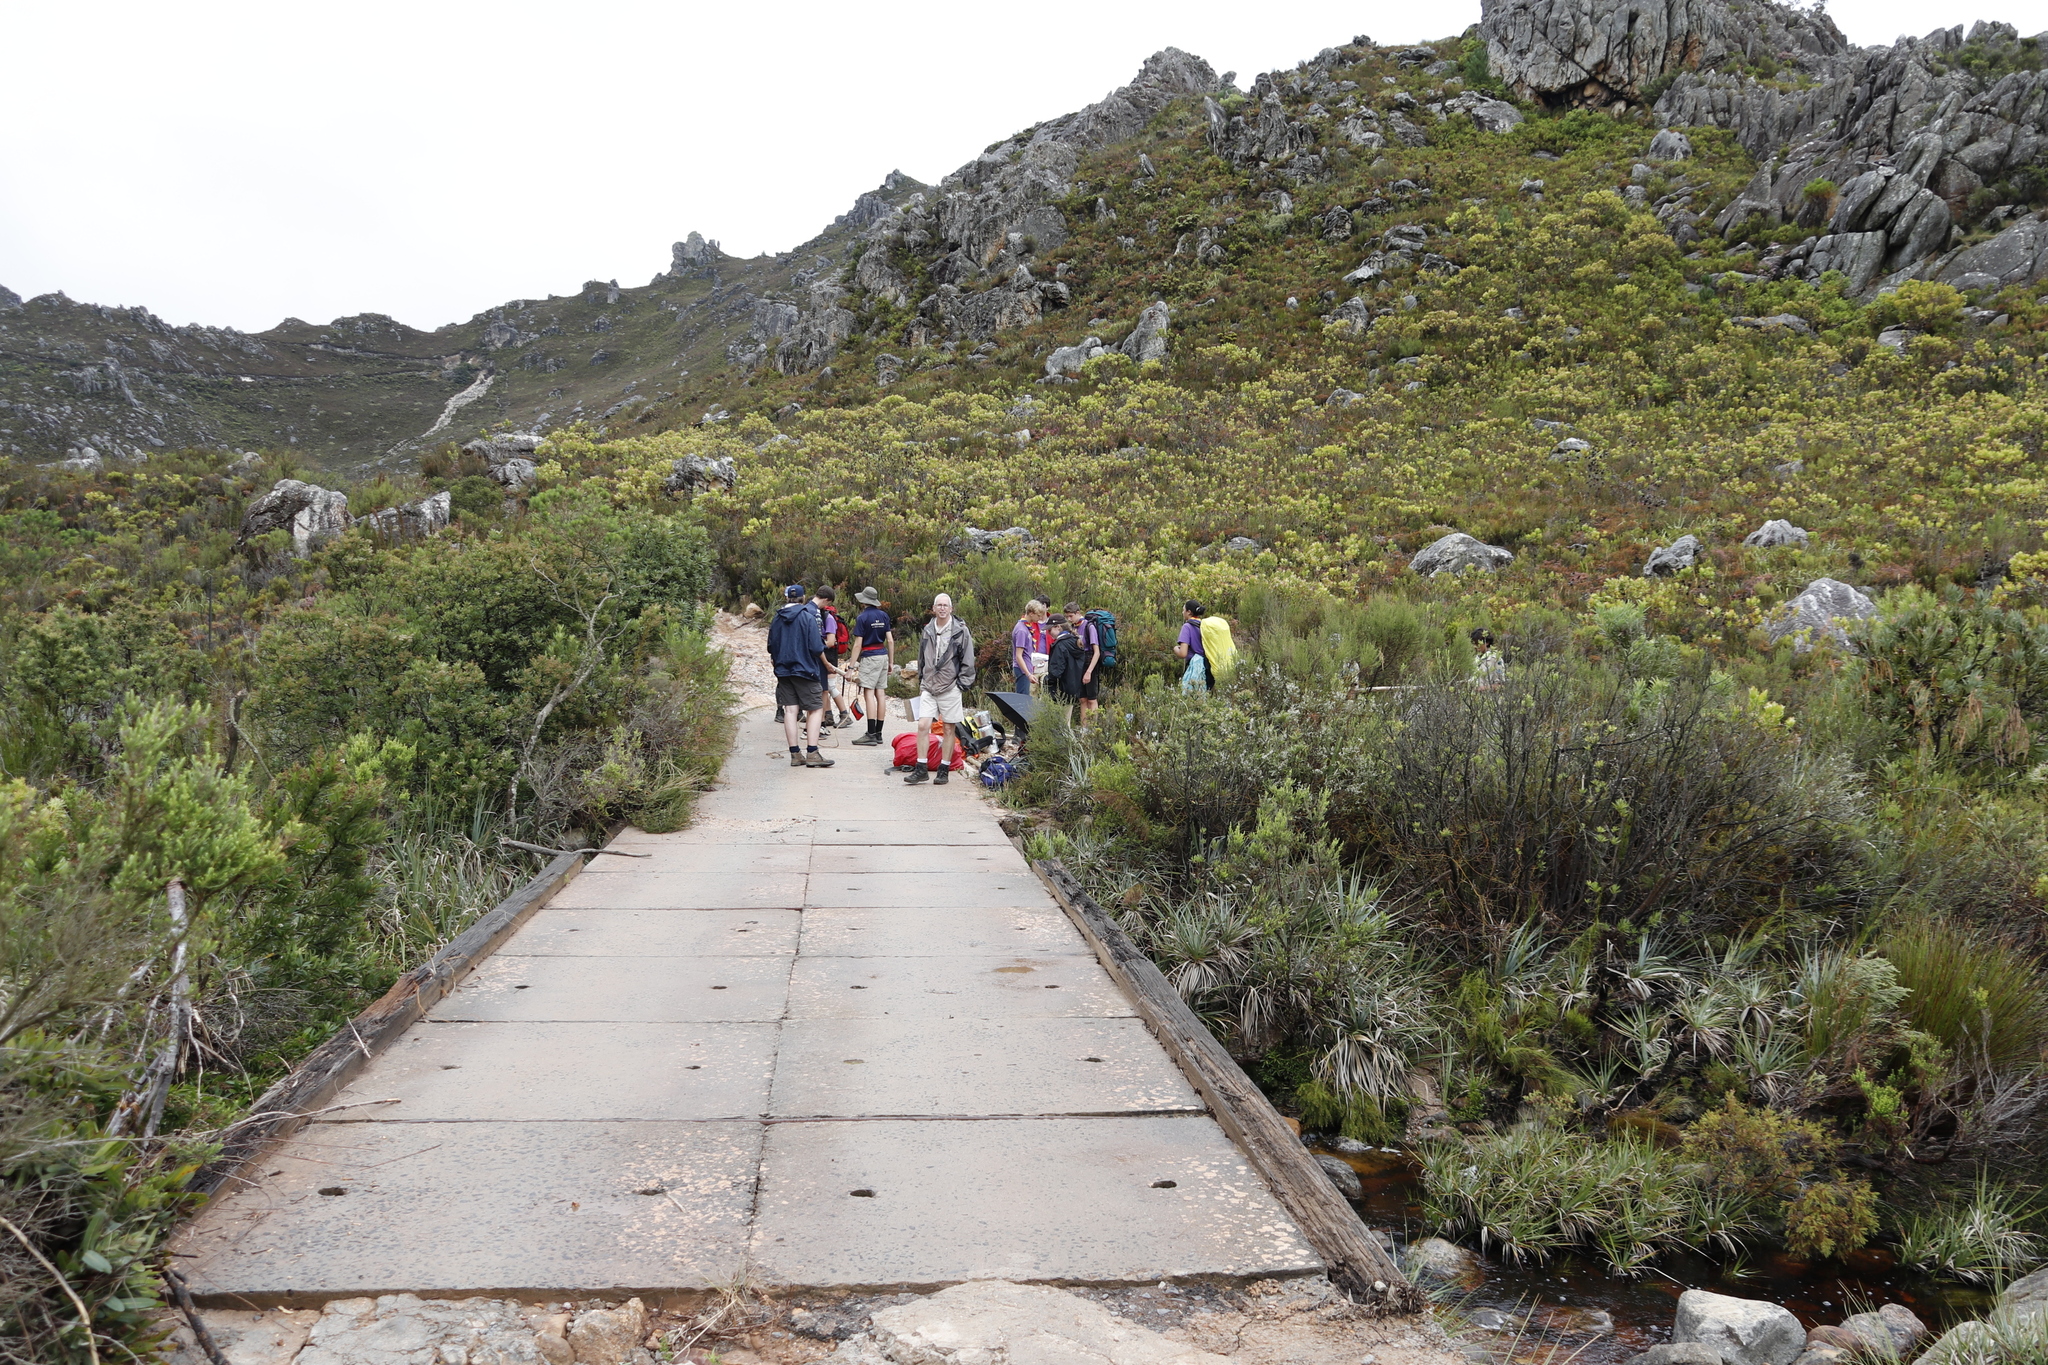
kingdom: Plantae
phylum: Tracheophyta
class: Magnoliopsida
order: Proteales
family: Proteaceae
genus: Leucadendron
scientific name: Leucadendron microcephalum
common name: Oilbract conebush
